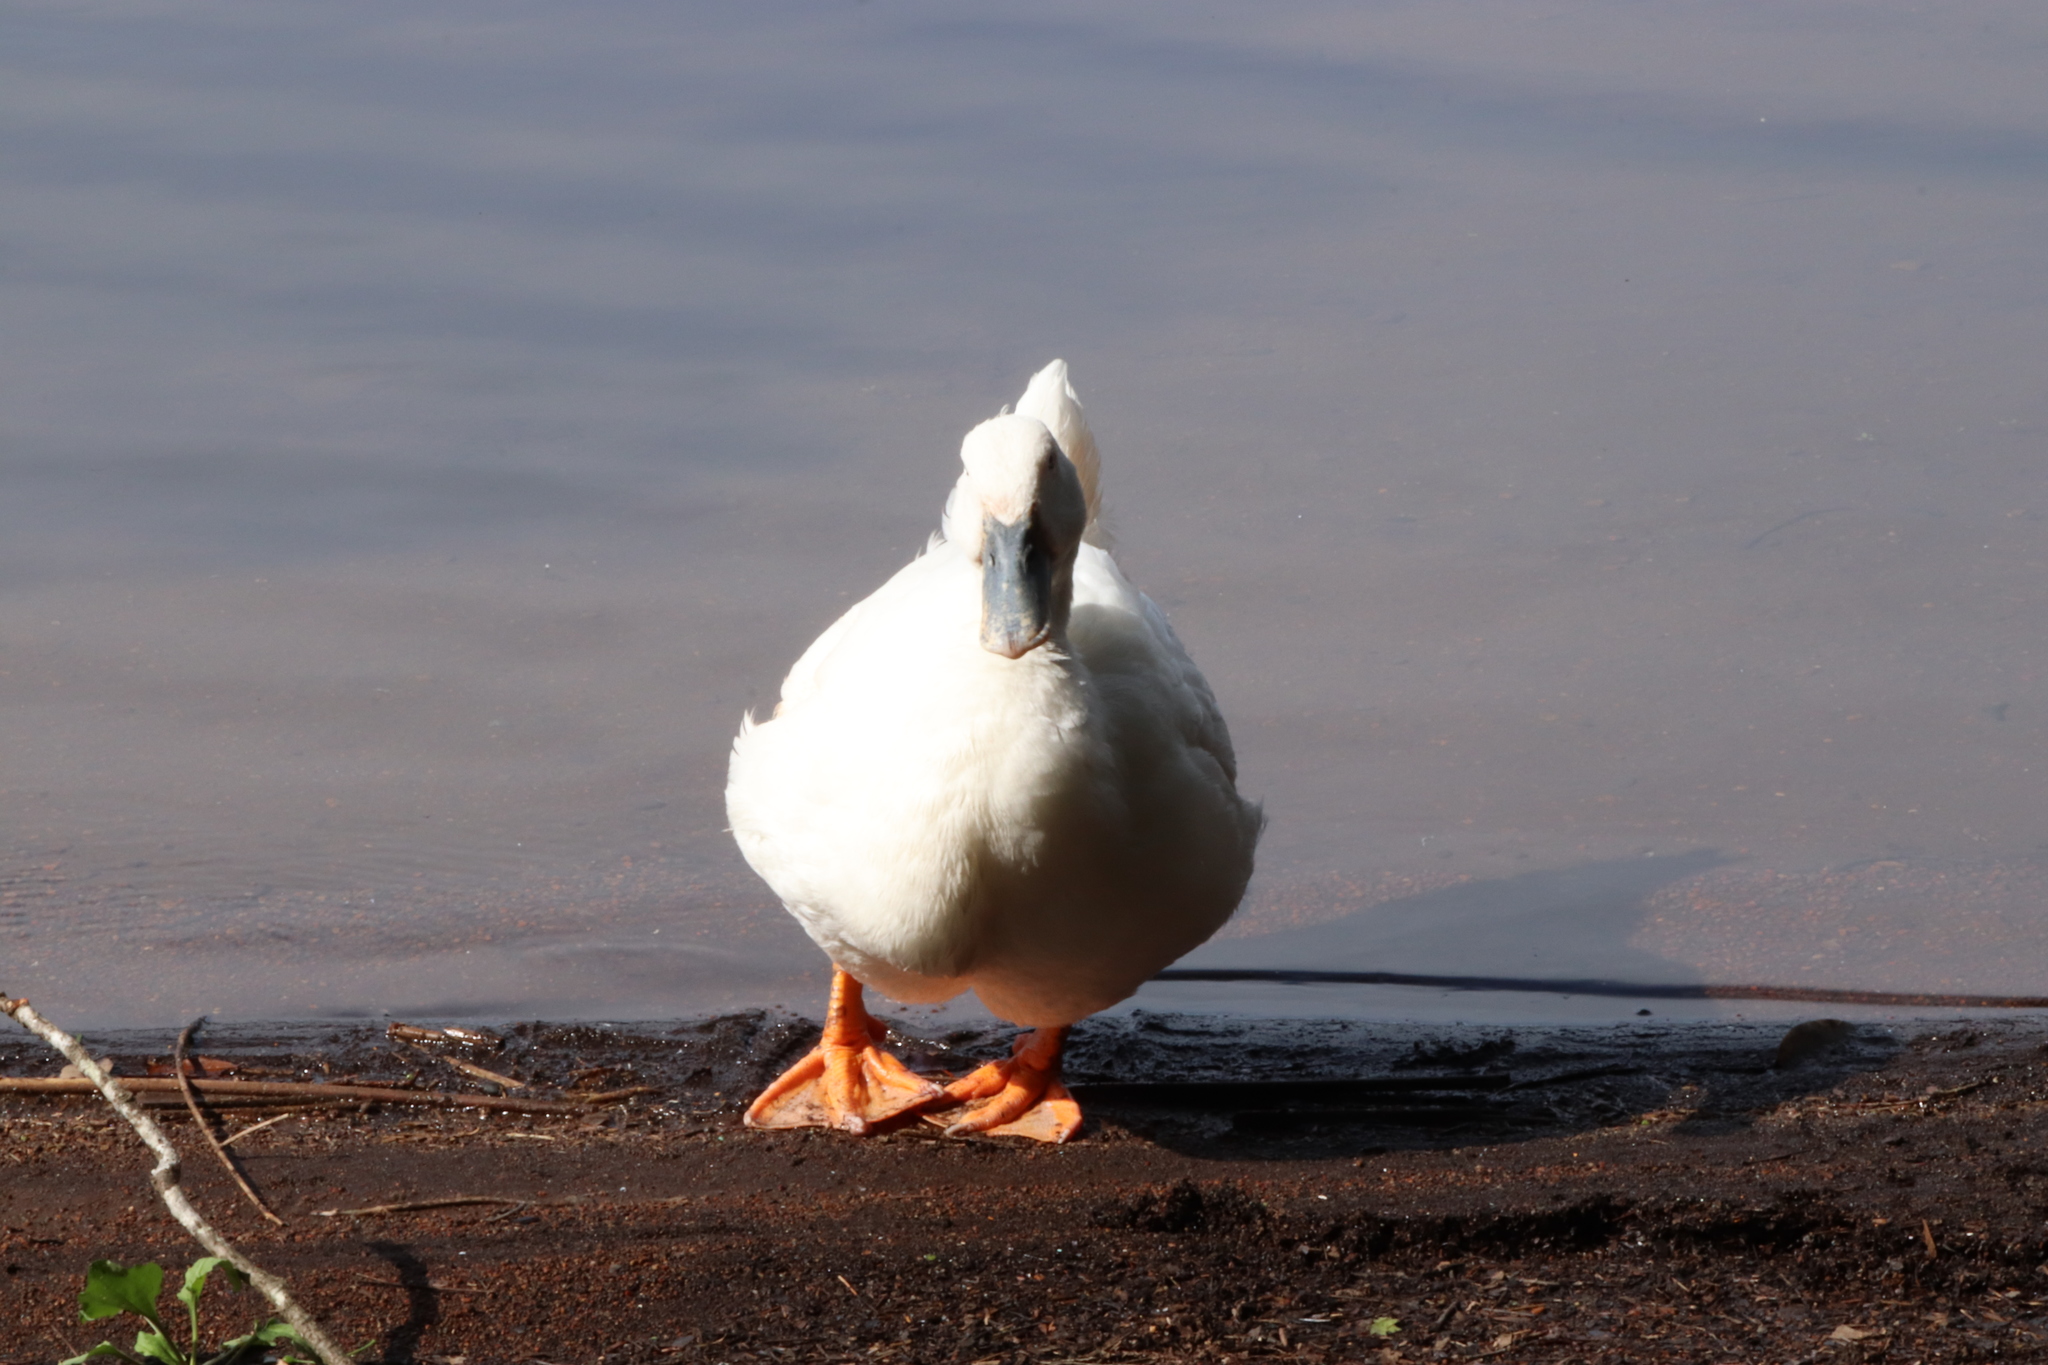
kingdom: Animalia
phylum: Chordata
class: Aves
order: Anseriformes
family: Anatidae
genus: Anas
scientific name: Anas platyrhynchos
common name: Mallard
